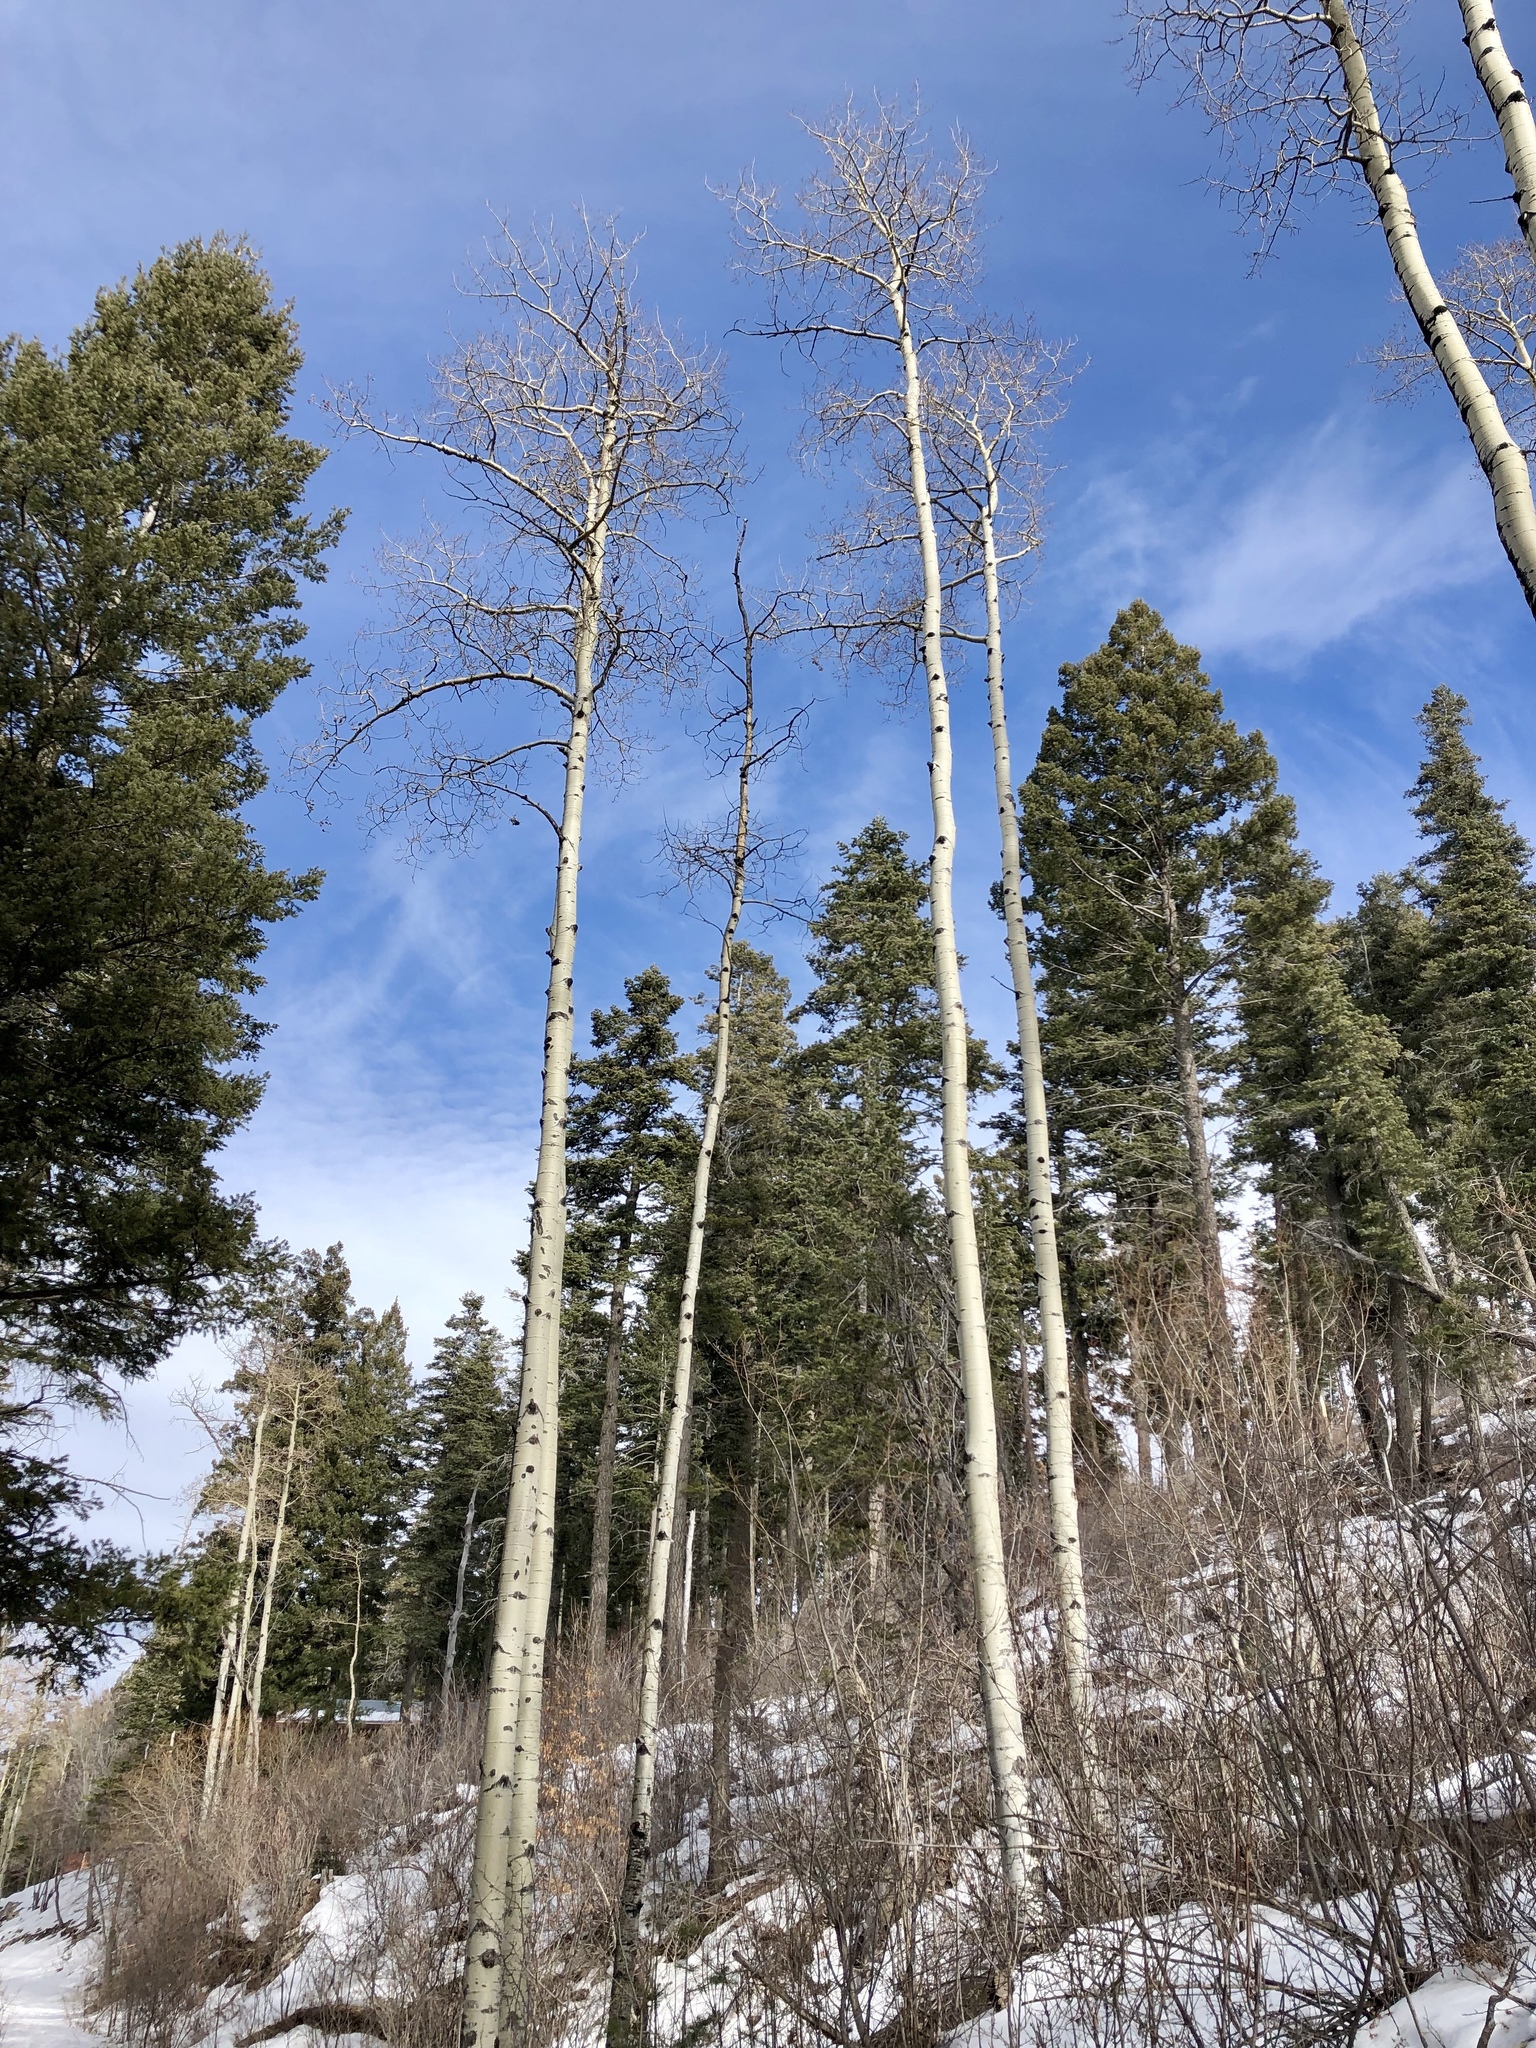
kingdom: Plantae
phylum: Tracheophyta
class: Magnoliopsida
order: Malpighiales
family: Salicaceae
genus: Populus
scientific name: Populus tremuloides
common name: Quaking aspen
